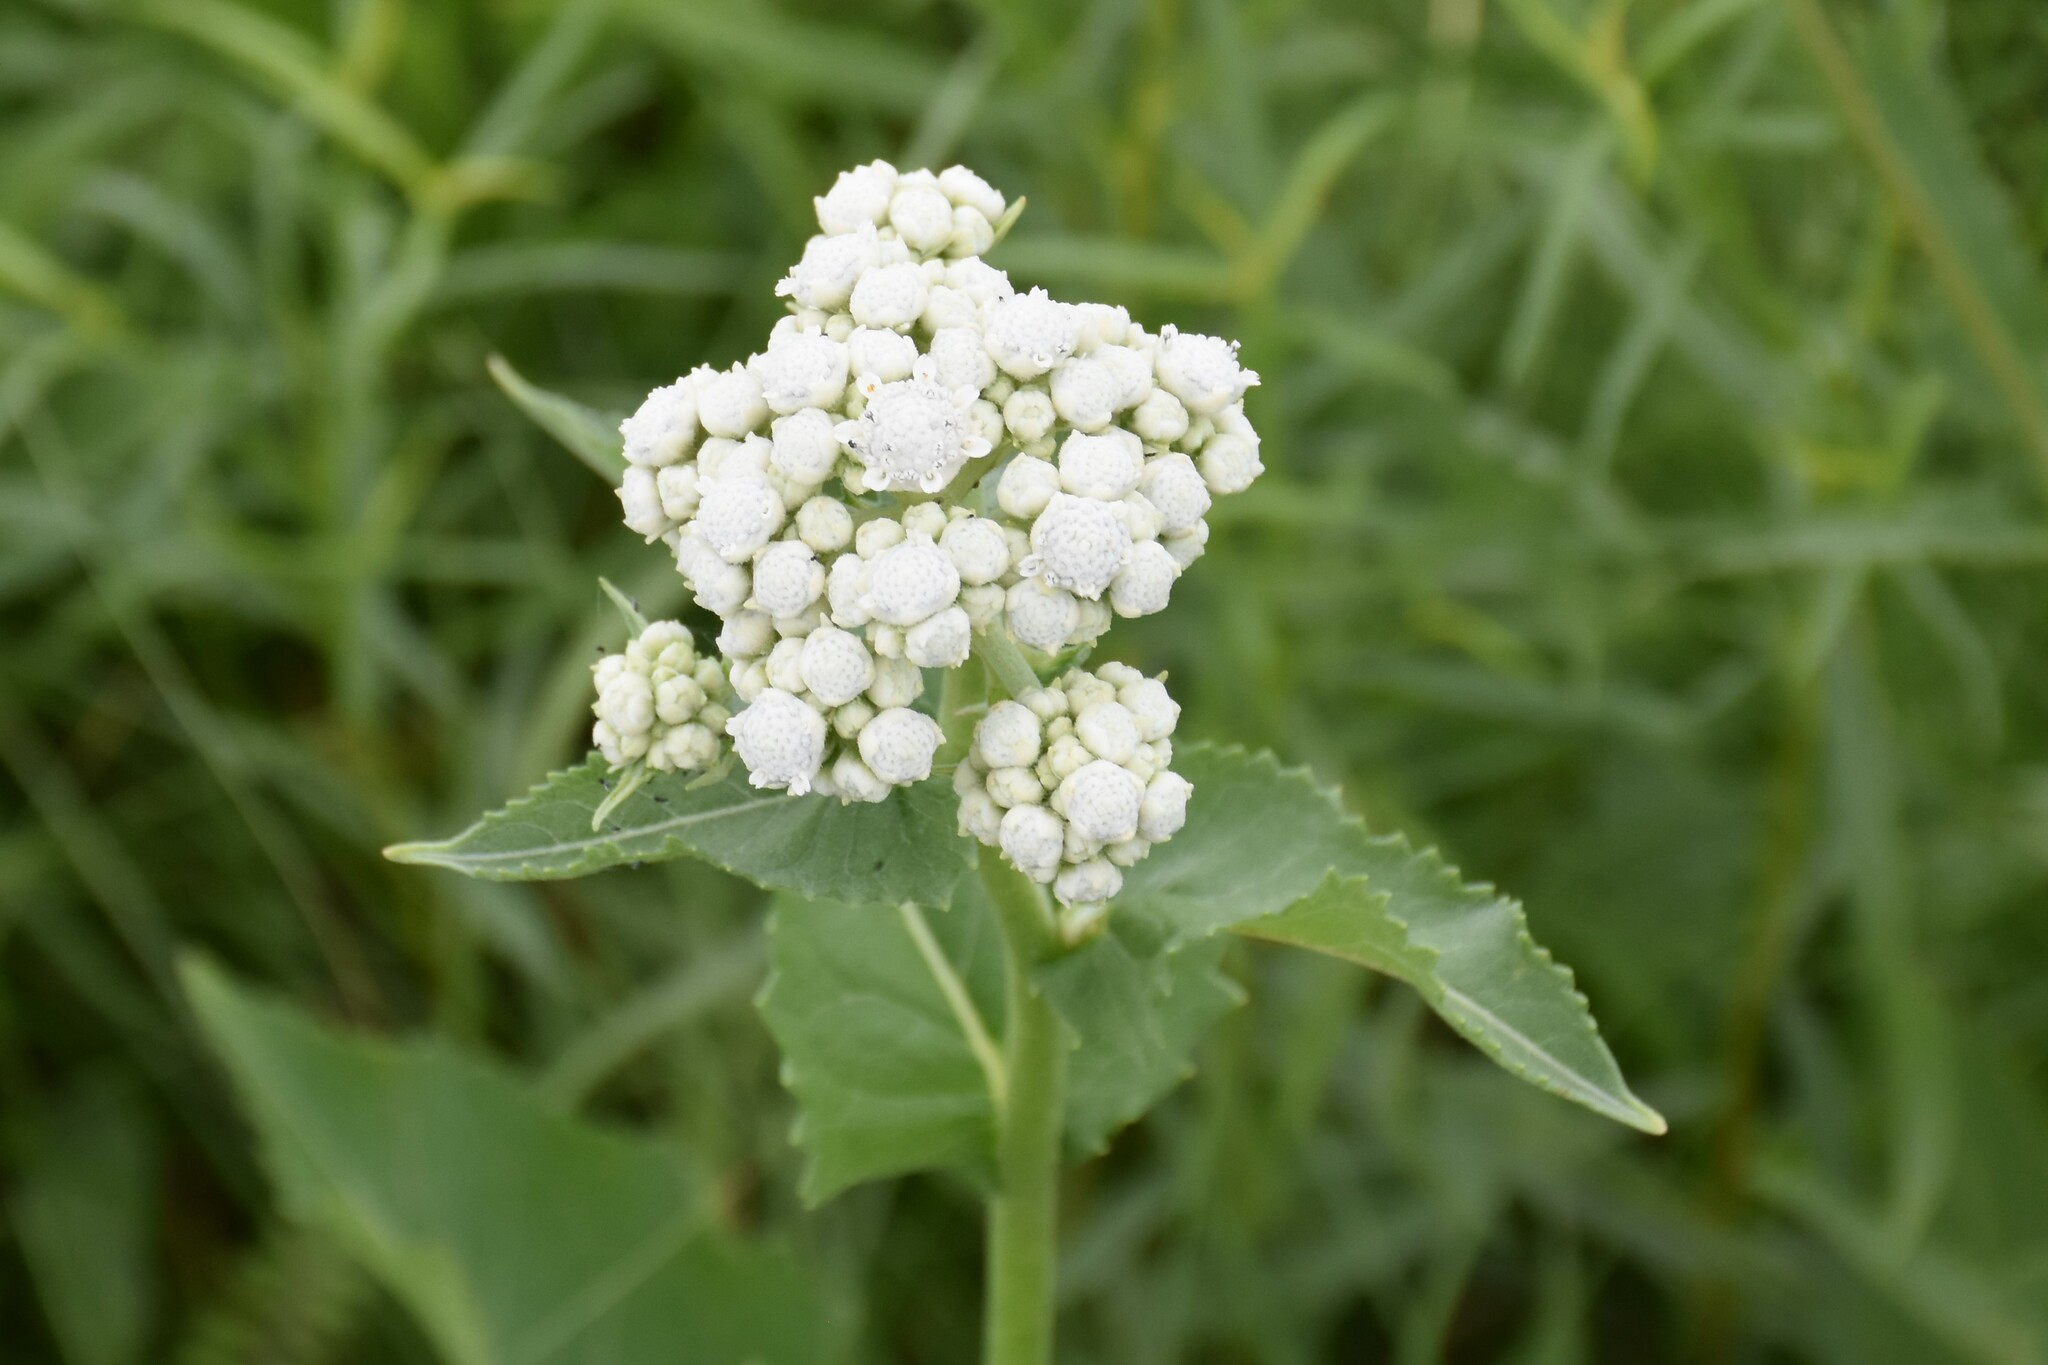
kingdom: Plantae
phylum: Tracheophyta
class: Magnoliopsida
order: Asterales
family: Asteraceae
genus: Parthenium
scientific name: Parthenium integrifolium
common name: American feverfew
